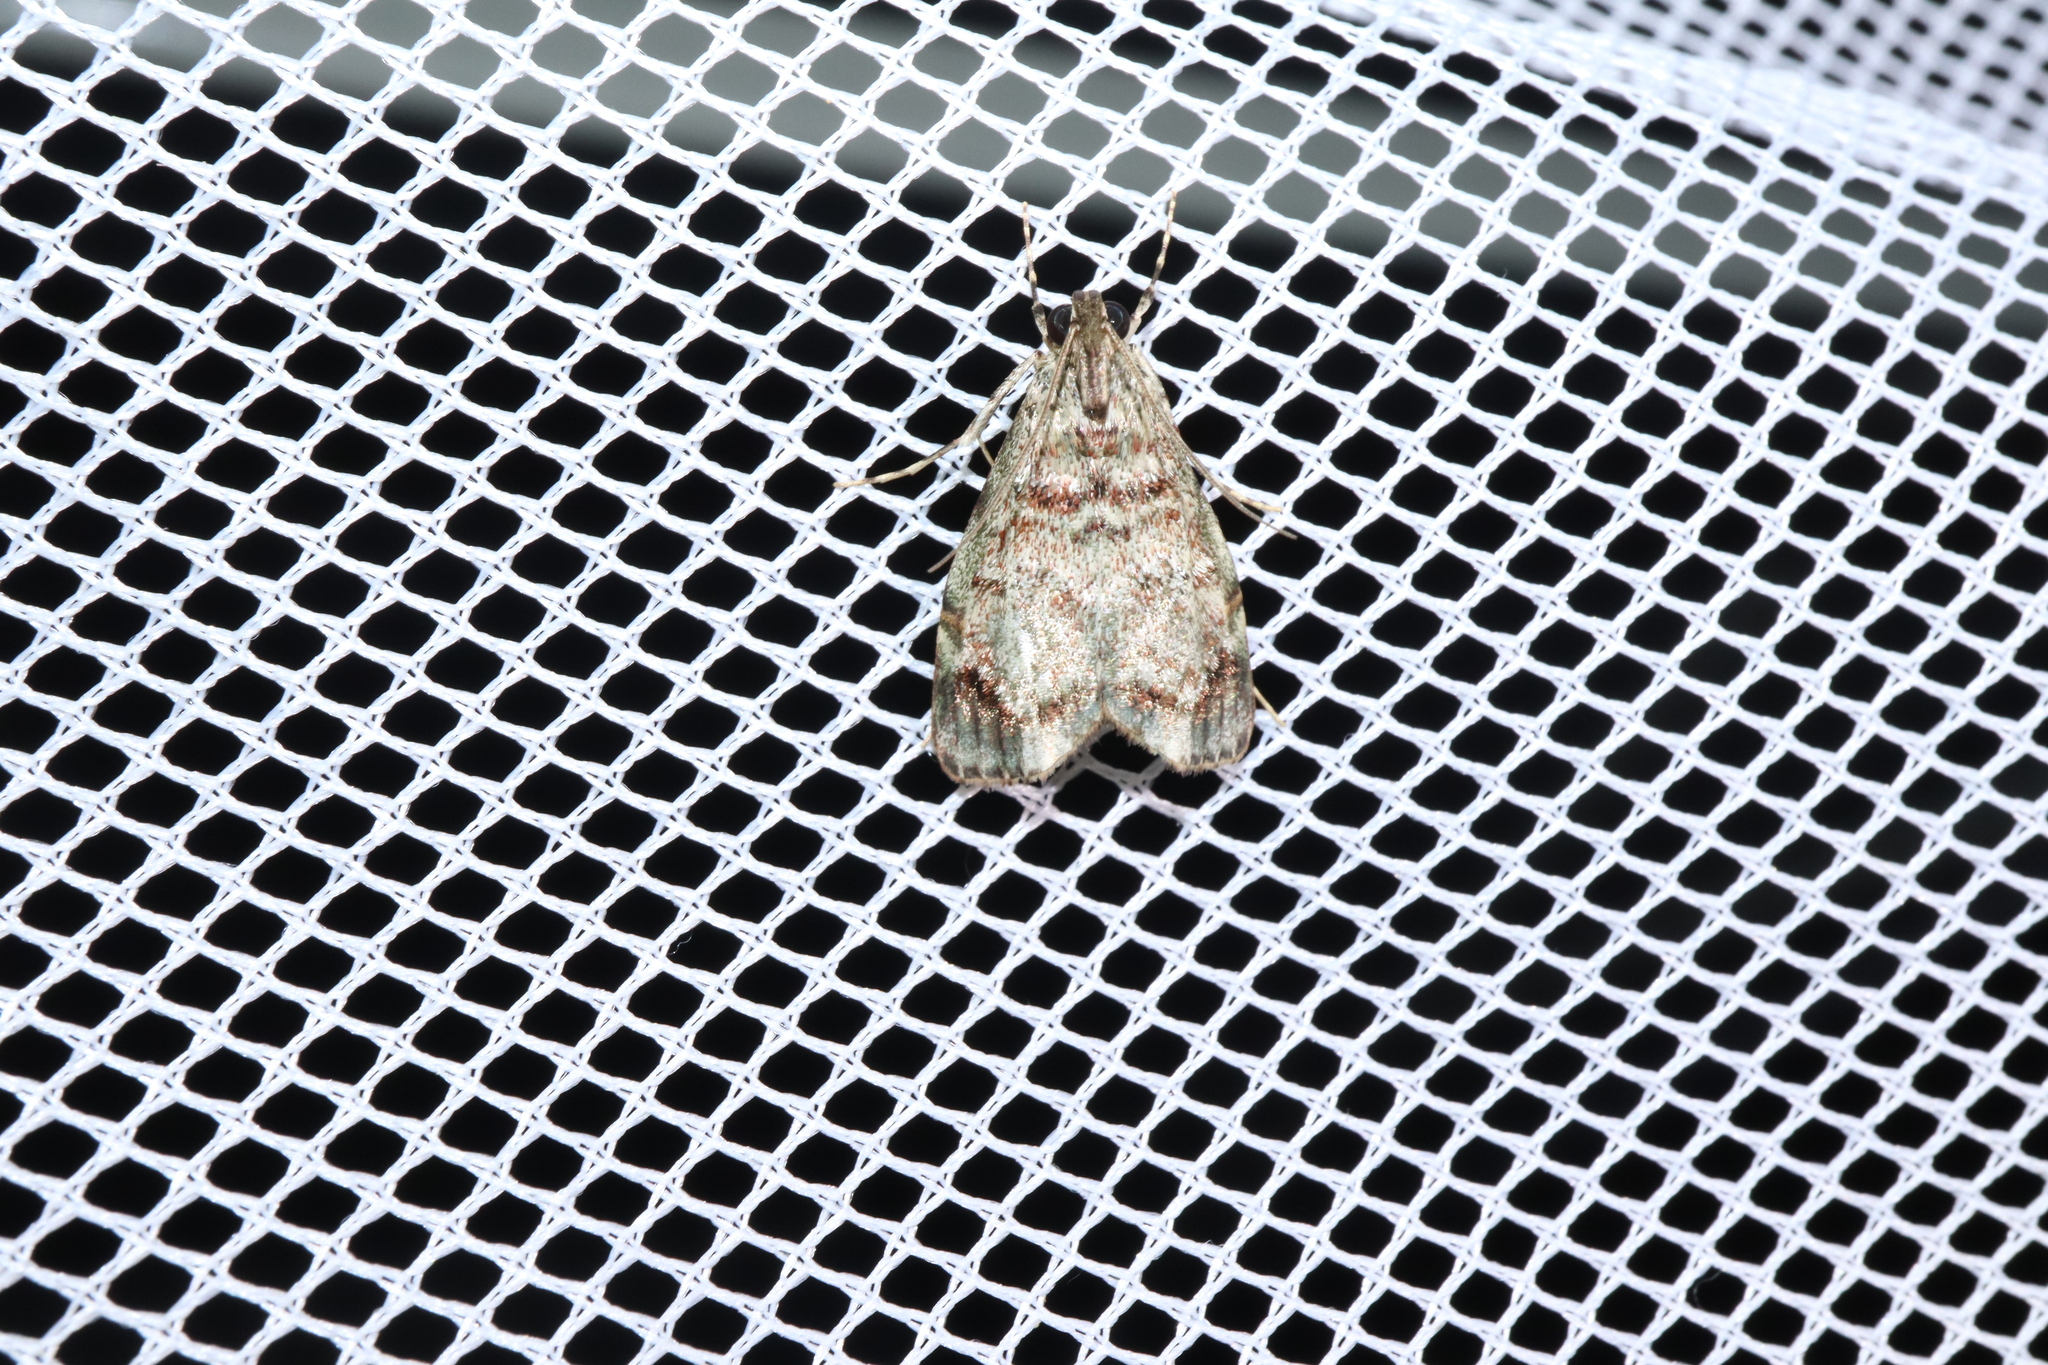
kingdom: Animalia
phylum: Arthropoda
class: Insecta
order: Lepidoptera
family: Pyralidae
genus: Stericta
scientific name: Stericta concisella
